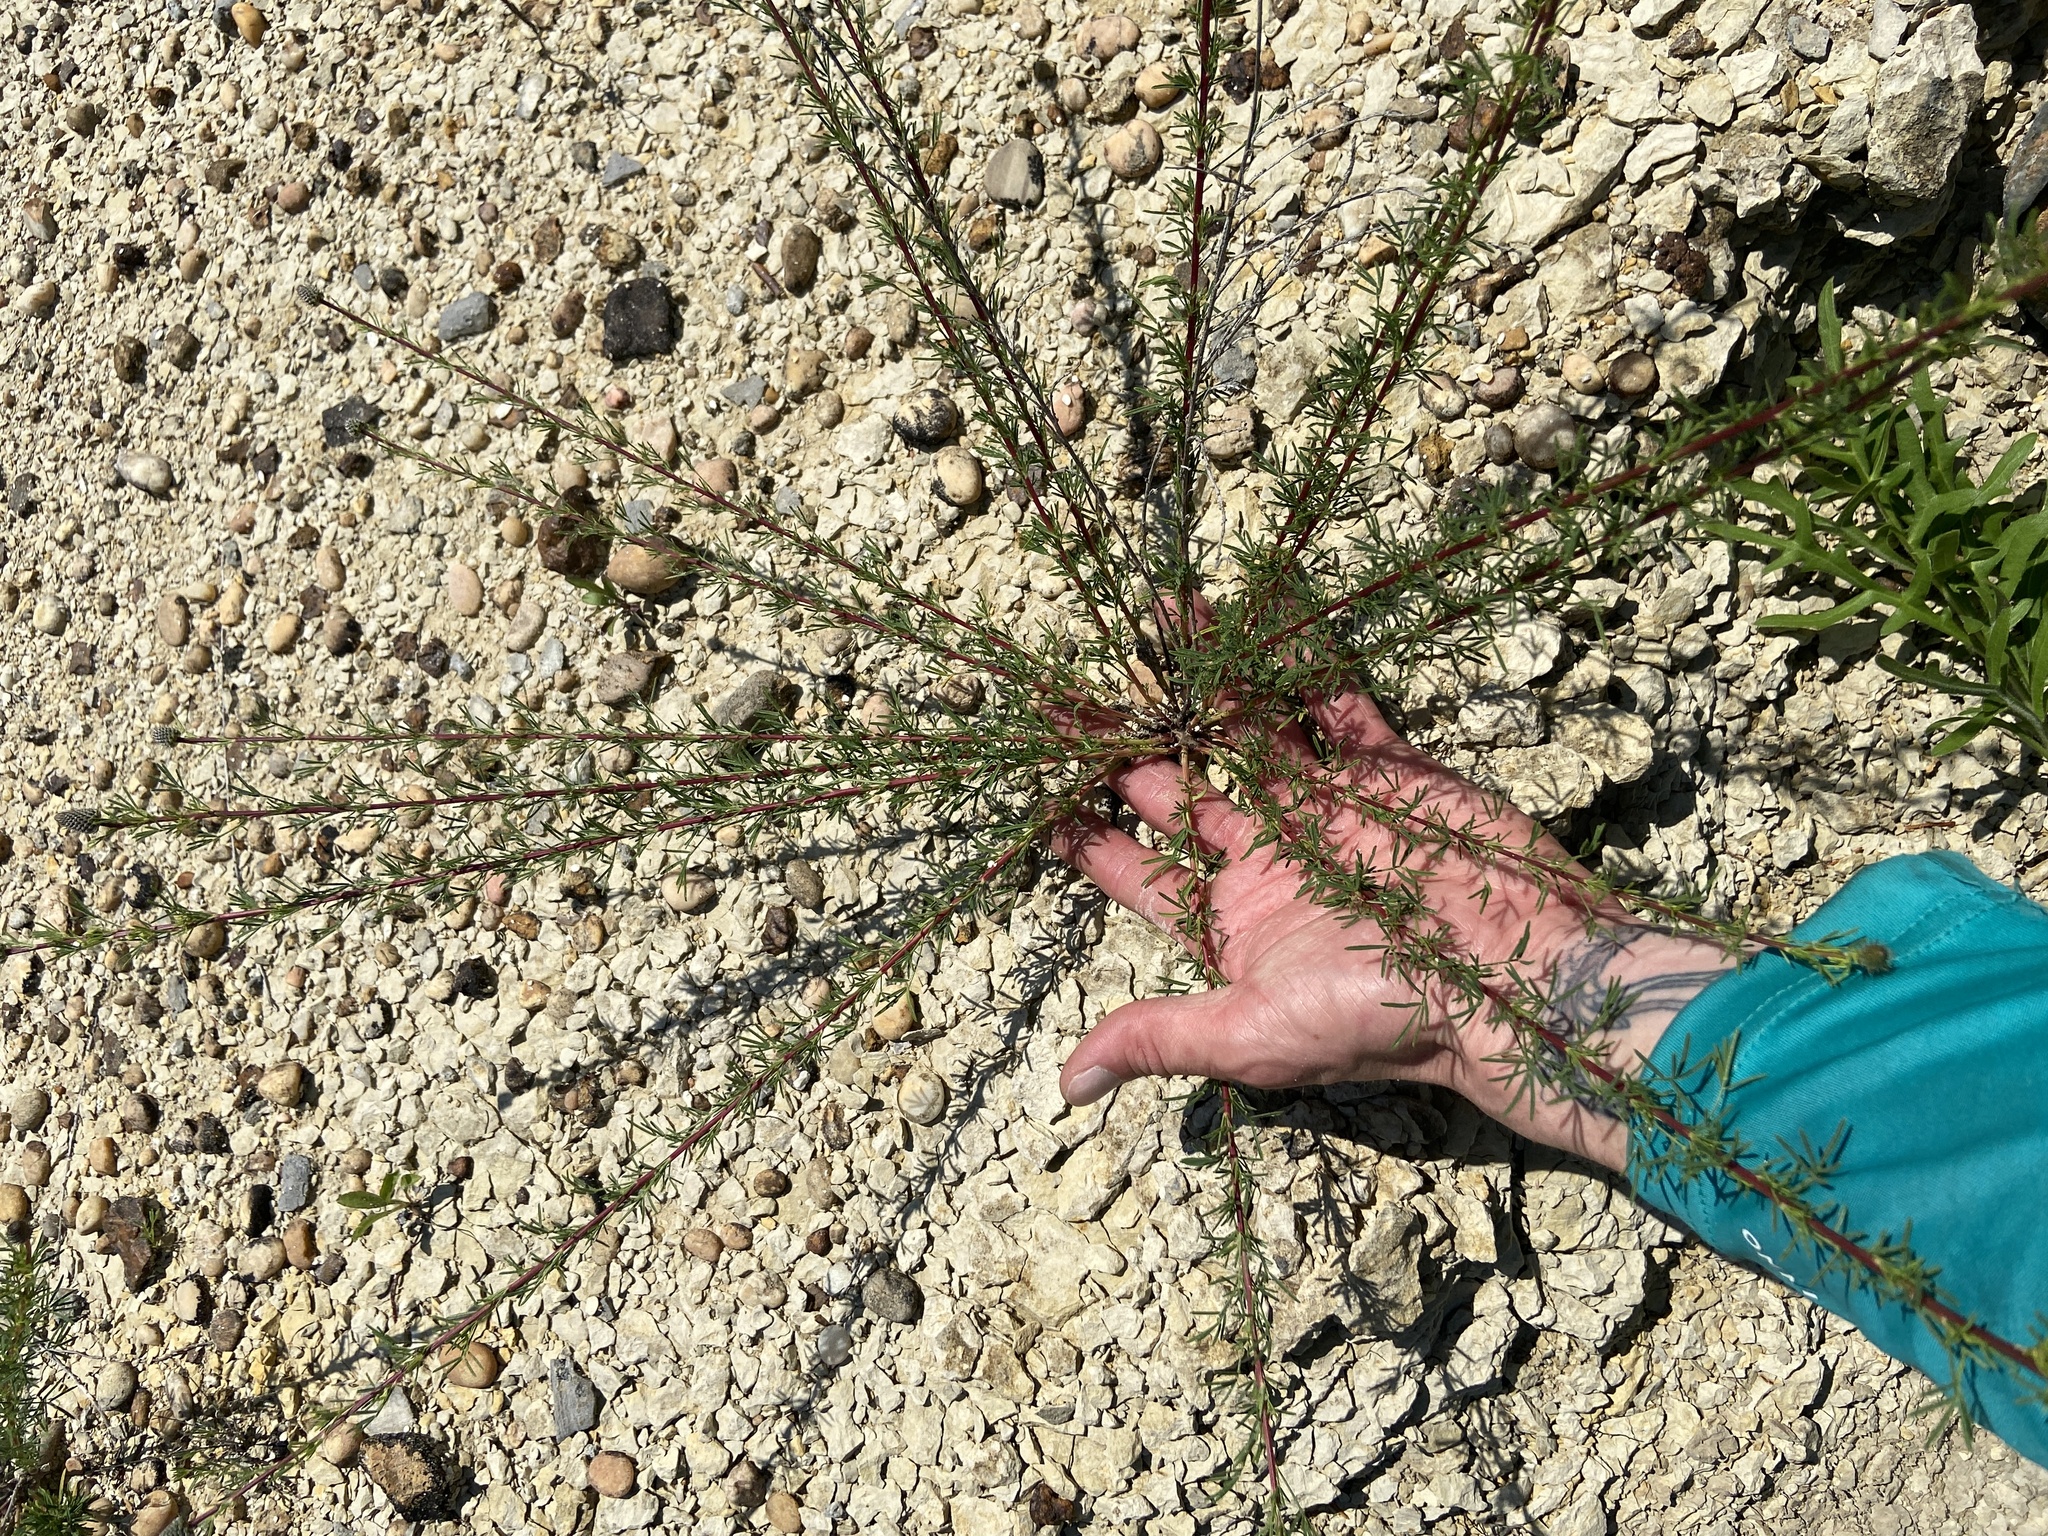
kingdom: Plantae
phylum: Tracheophyta
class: Magnoliopsida
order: Fabales
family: Fabaceae
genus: Dalea
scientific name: Dalea purpurea
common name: Purple prairie-clover
